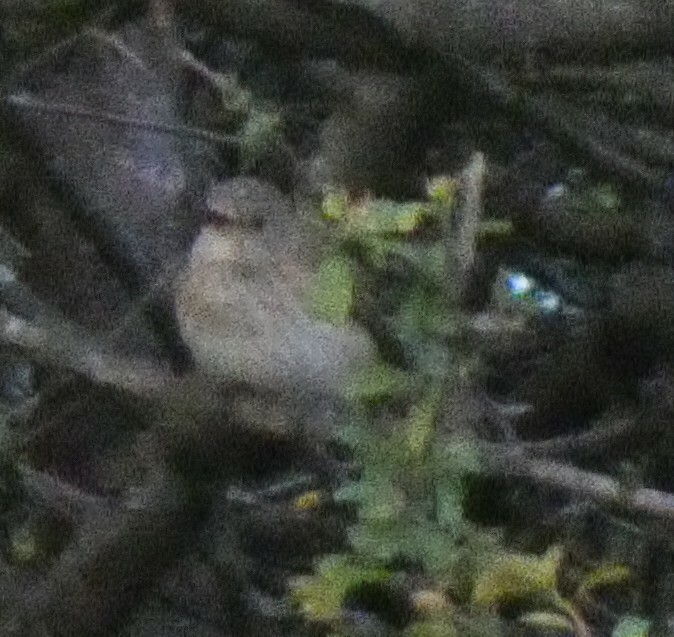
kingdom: Animalia
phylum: Chordata
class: Aves
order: Passeriformes
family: Muscicapidae
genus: Muscicapa
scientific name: Muscicapa striata
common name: Spotted flycatcher
